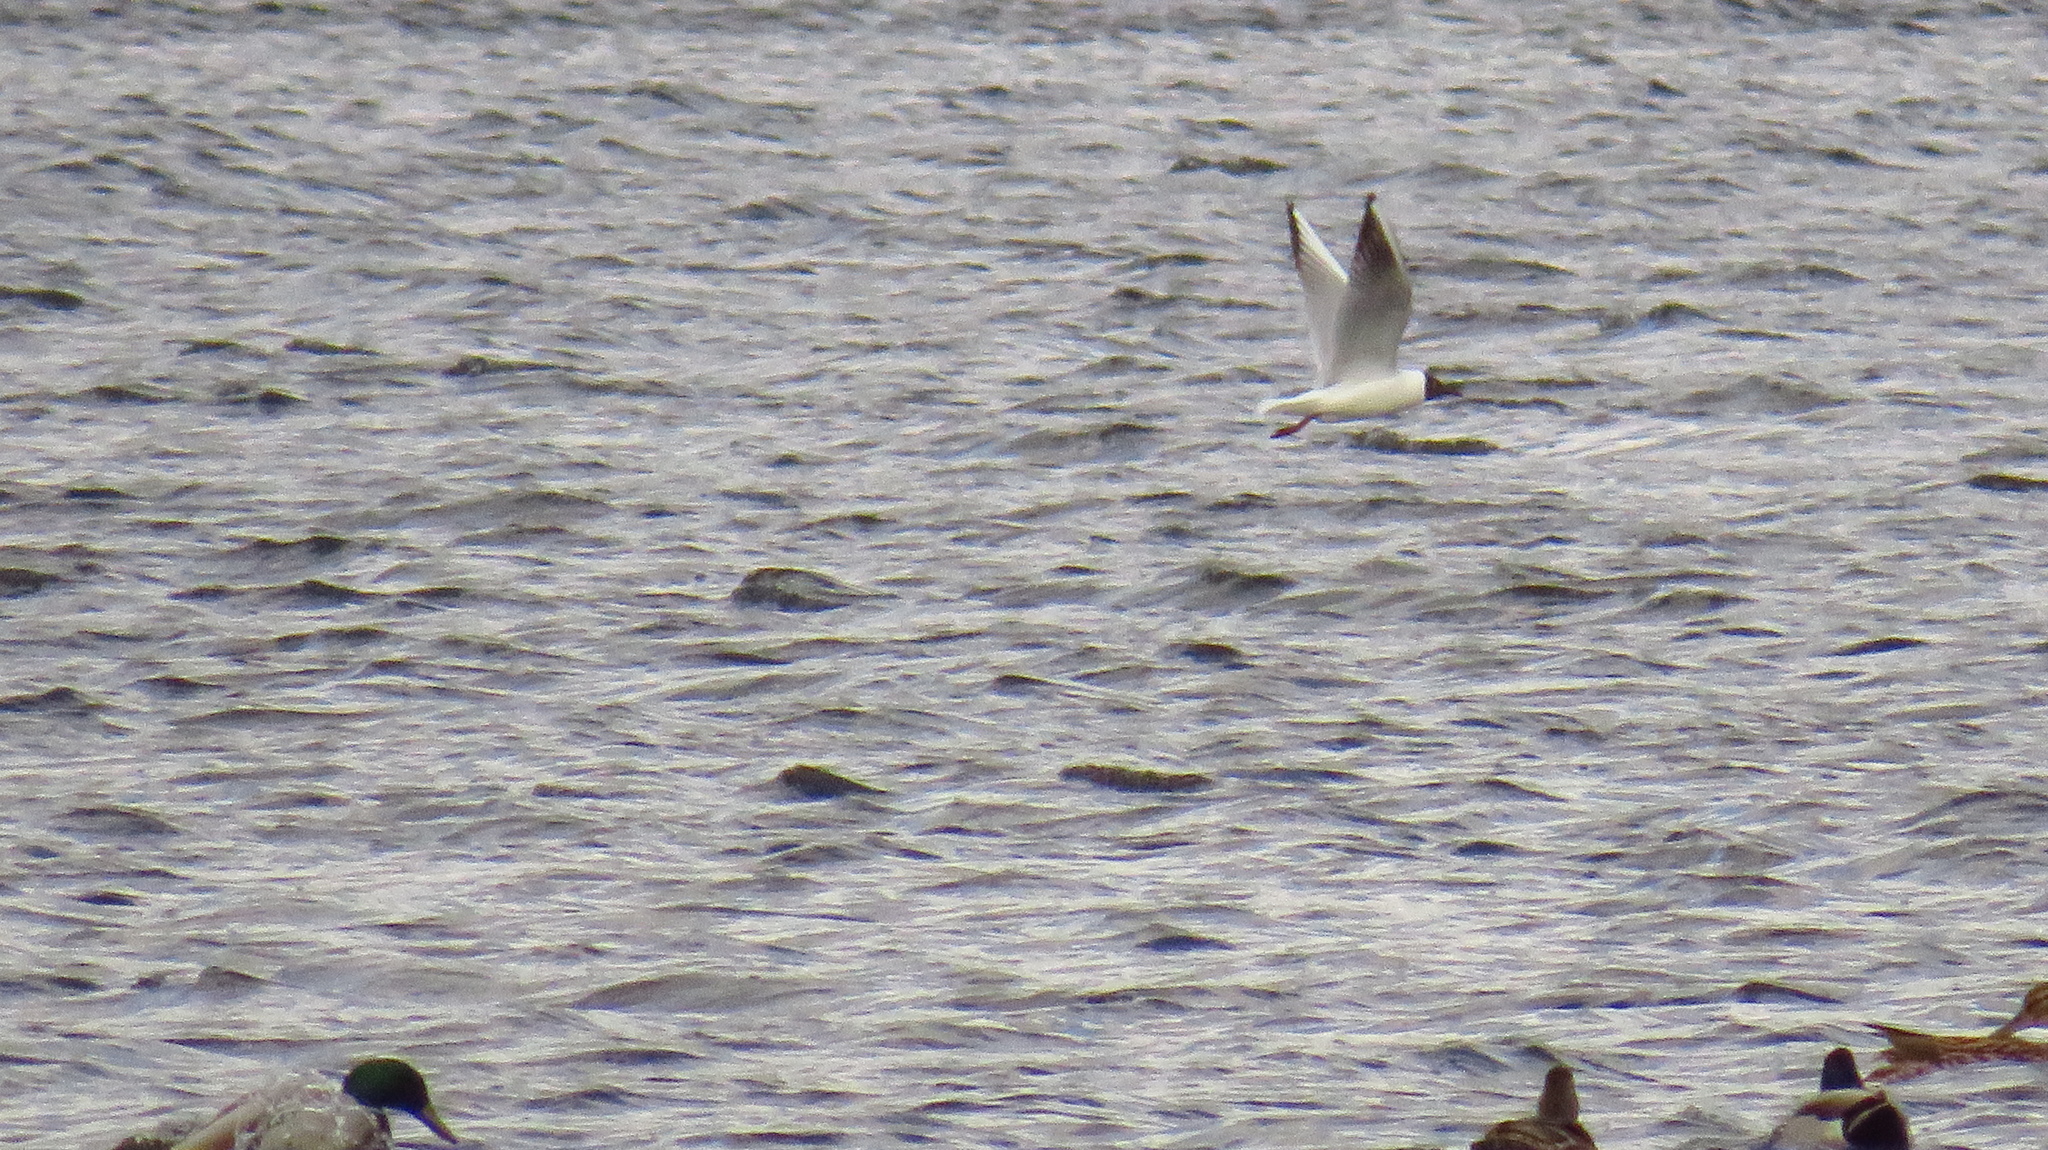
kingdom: Animalia
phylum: Chordata
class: Aves
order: Charadriiformes
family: Laridae
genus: Chroicocephalus
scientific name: Chroicocephalus ridibundus
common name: Black-headed gull
